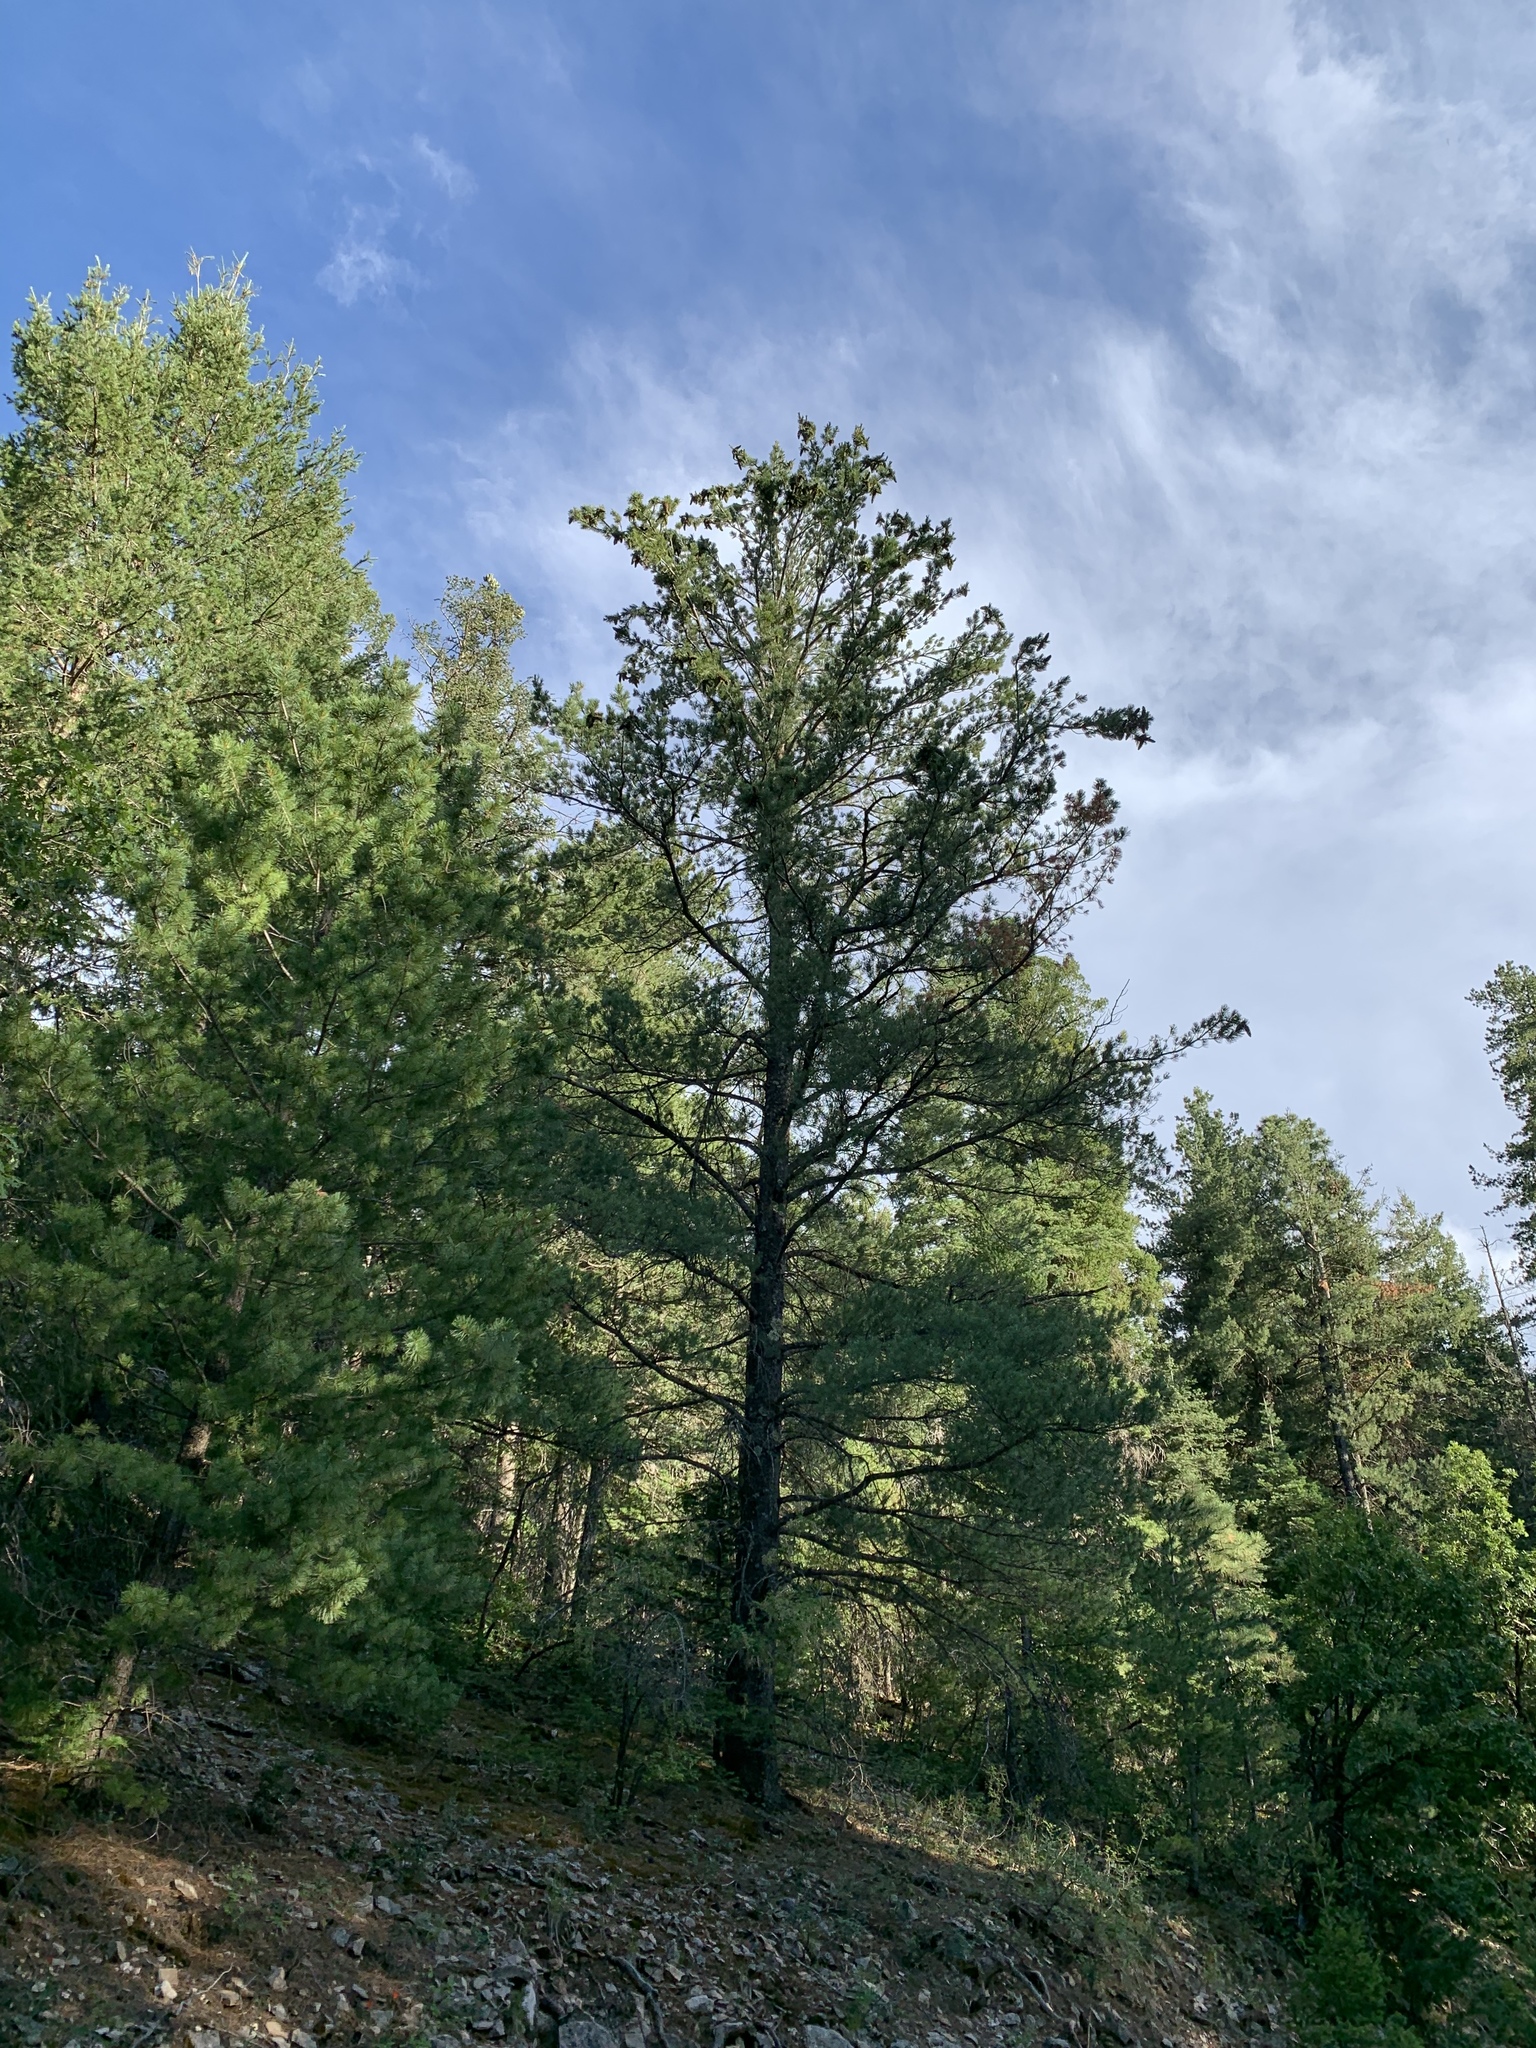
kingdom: Plantae
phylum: Tracheophyta
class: Pinopsida
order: Pinales
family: Pinaceae
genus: Pinus
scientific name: Pinus strobiformis
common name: Southwestern white pine
